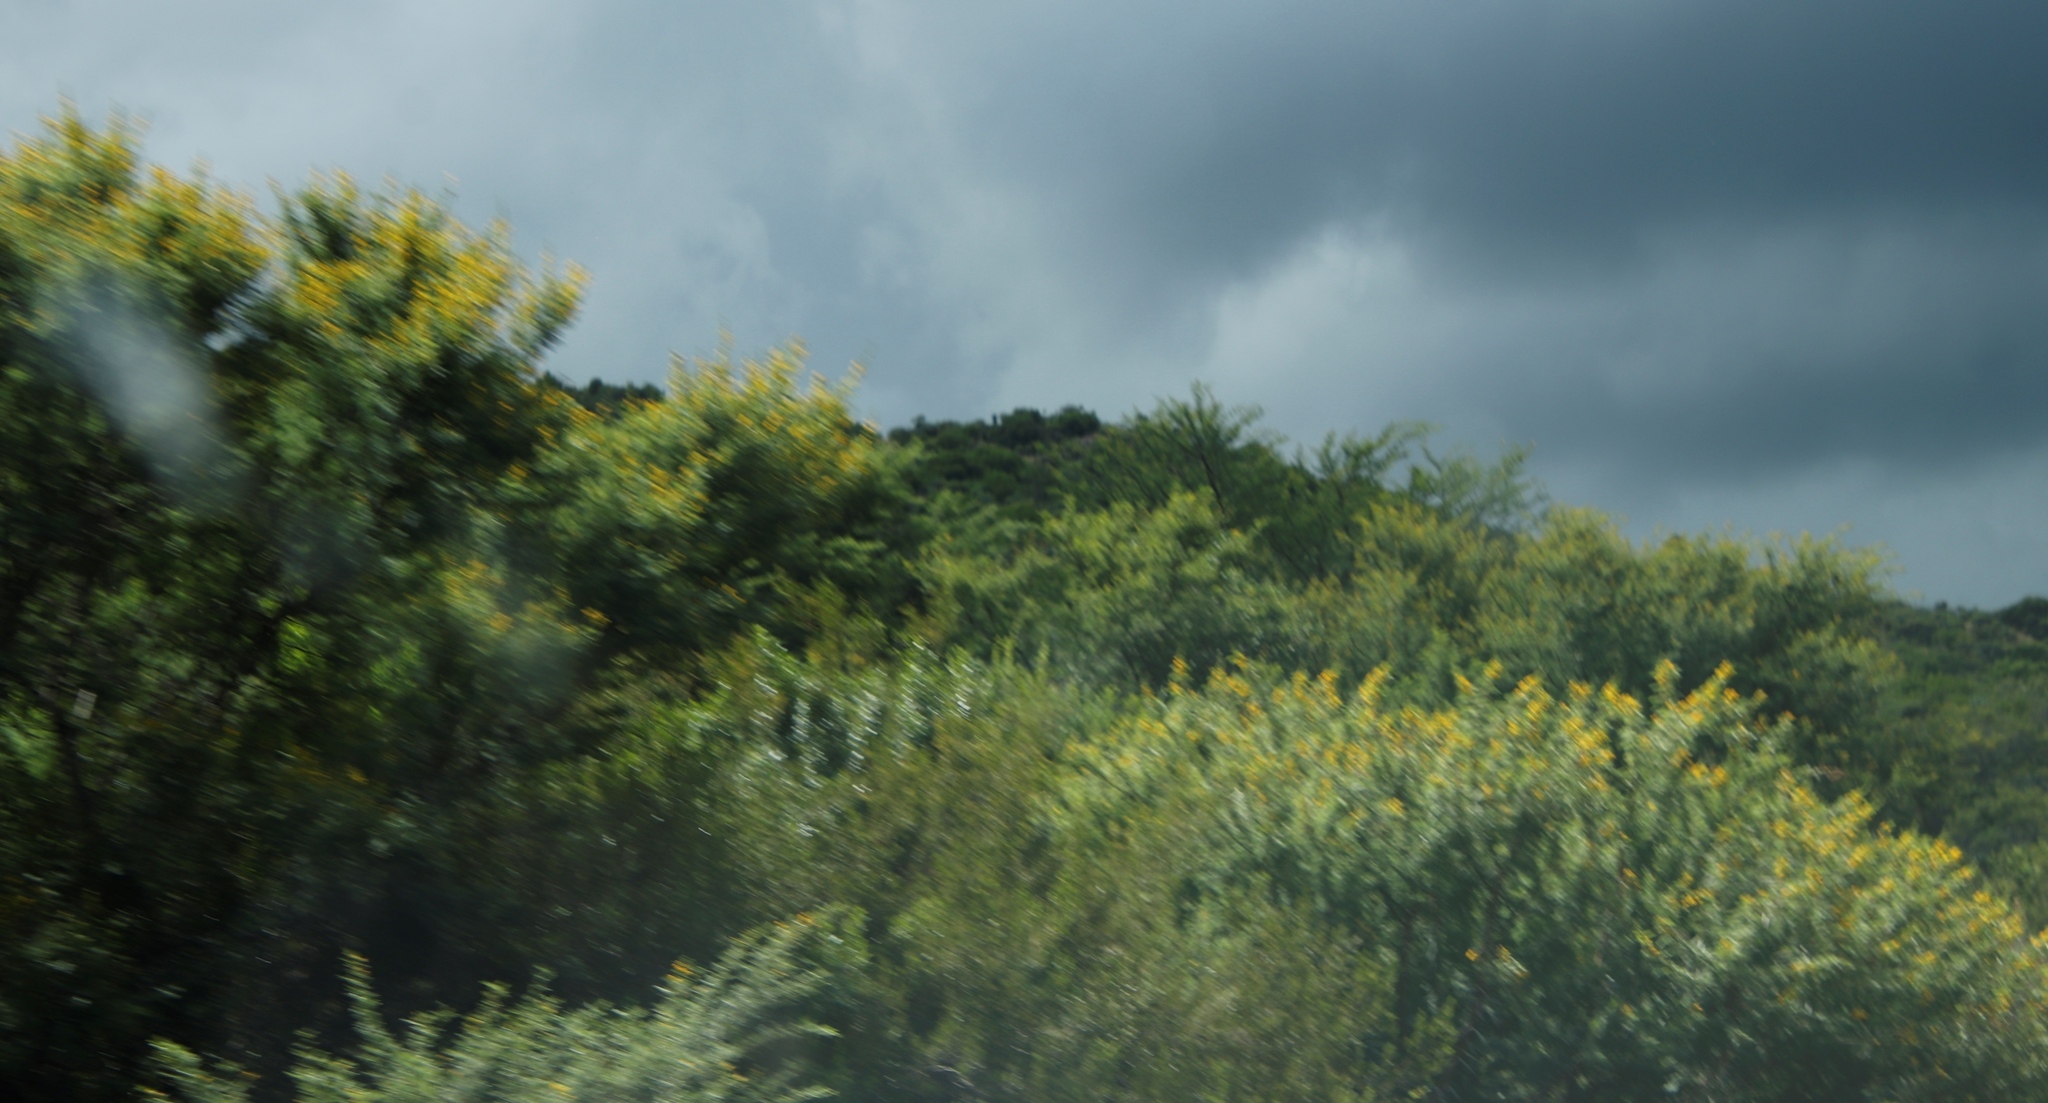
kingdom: Plantae
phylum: Tracheophyta
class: Magnoliopsida
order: Fabales
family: Fabaceae
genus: Vachellia
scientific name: Vachellia karroo
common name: Sweet thorn
